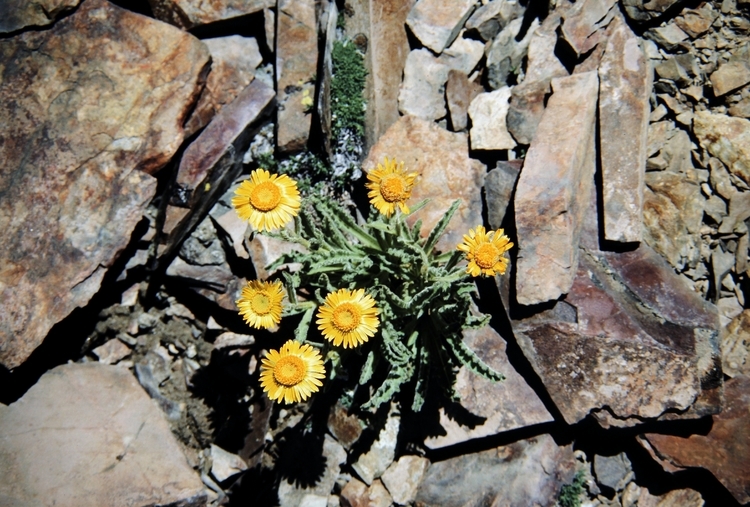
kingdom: Plantae
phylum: Tracheophyta
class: Magnoliopsida
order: Asterales
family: Asteraceae
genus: Hulsea
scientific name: Hulsea algida
